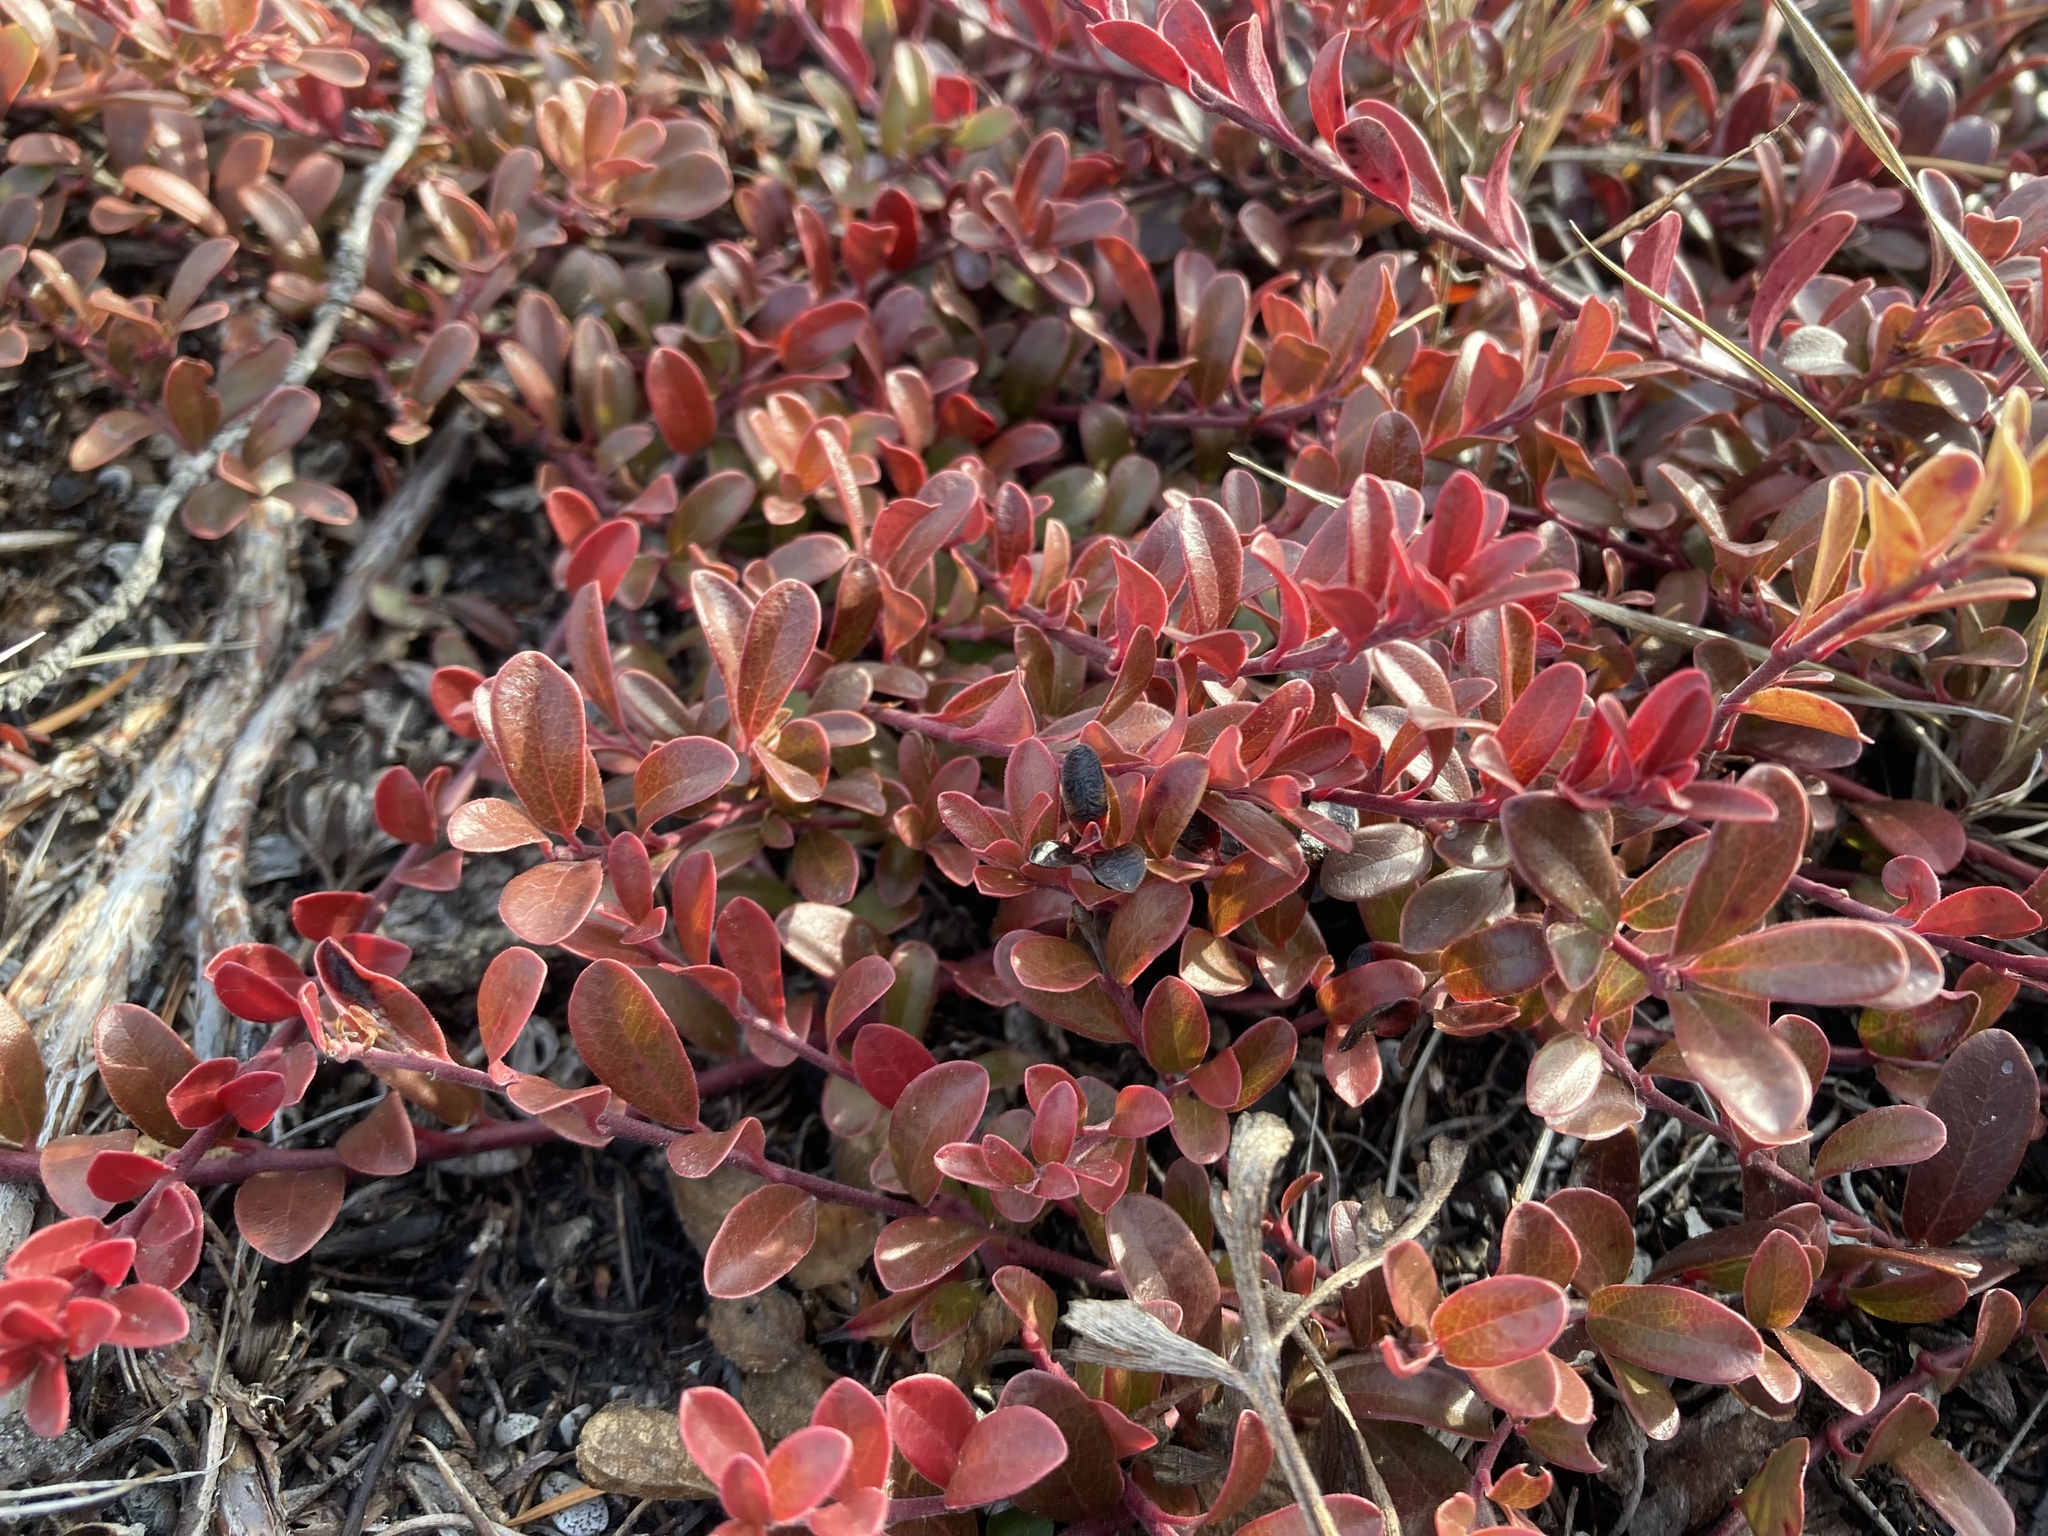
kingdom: Plantae
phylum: Tracheophyta
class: Magnoliopsida
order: Ericales
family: Ericaceae
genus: Arctostaphylos
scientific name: Arctostaphylos uva-ursi
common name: Bearberry
